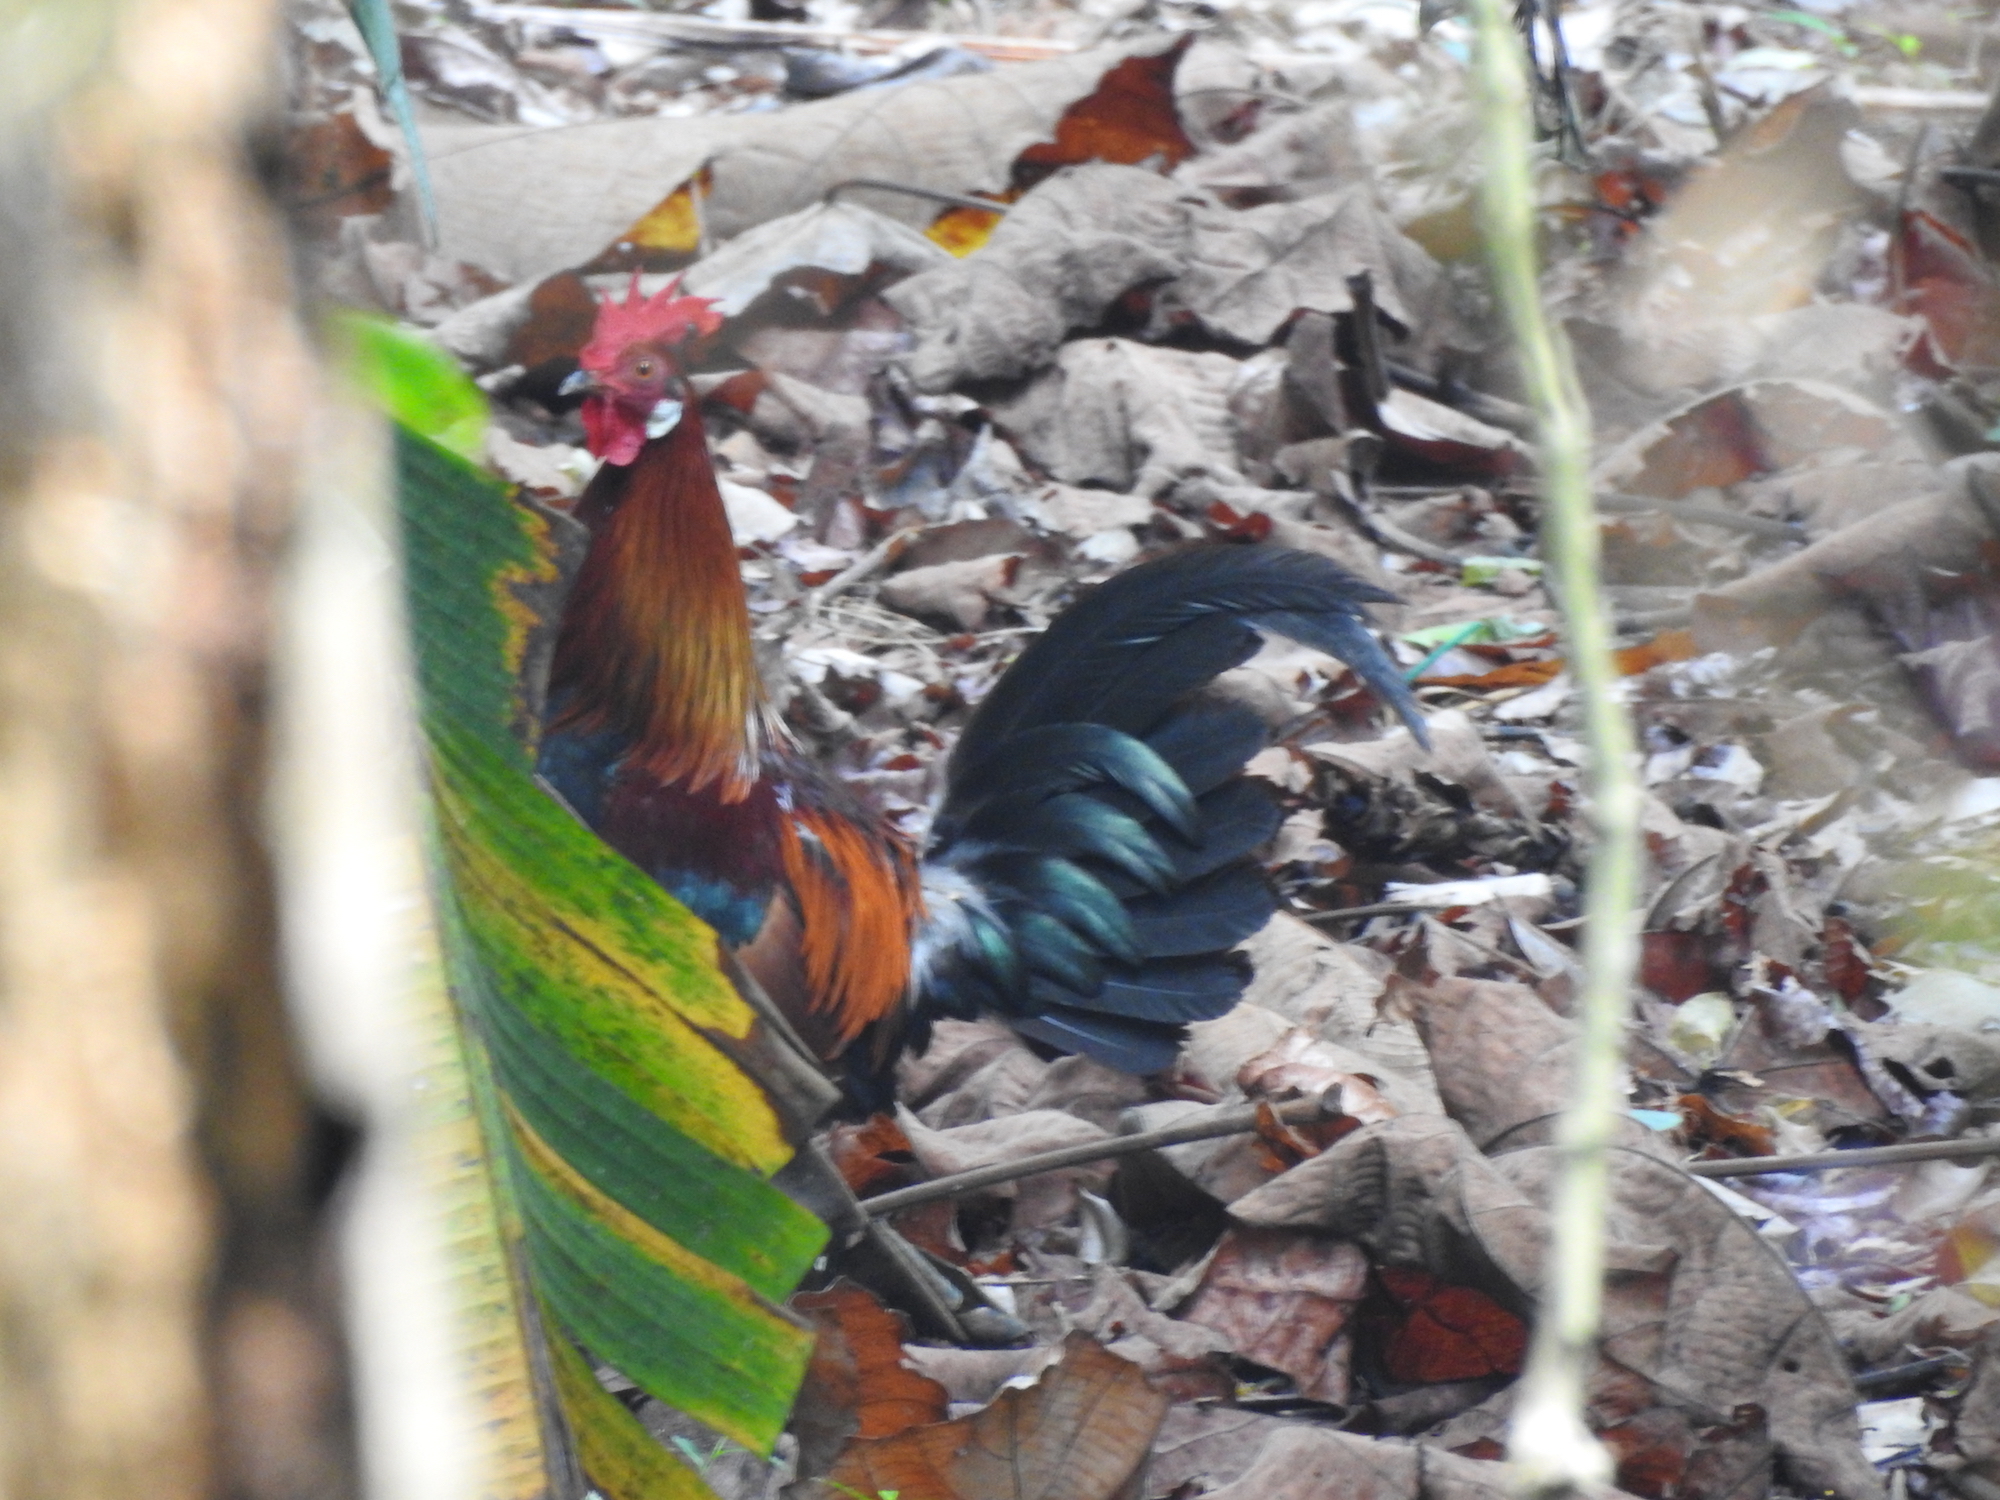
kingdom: Animalia
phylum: Chordata
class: Aves
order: Galliformes
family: Phasianidae
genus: Gallus
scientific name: Gallus gallus
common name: Red junglefowl
